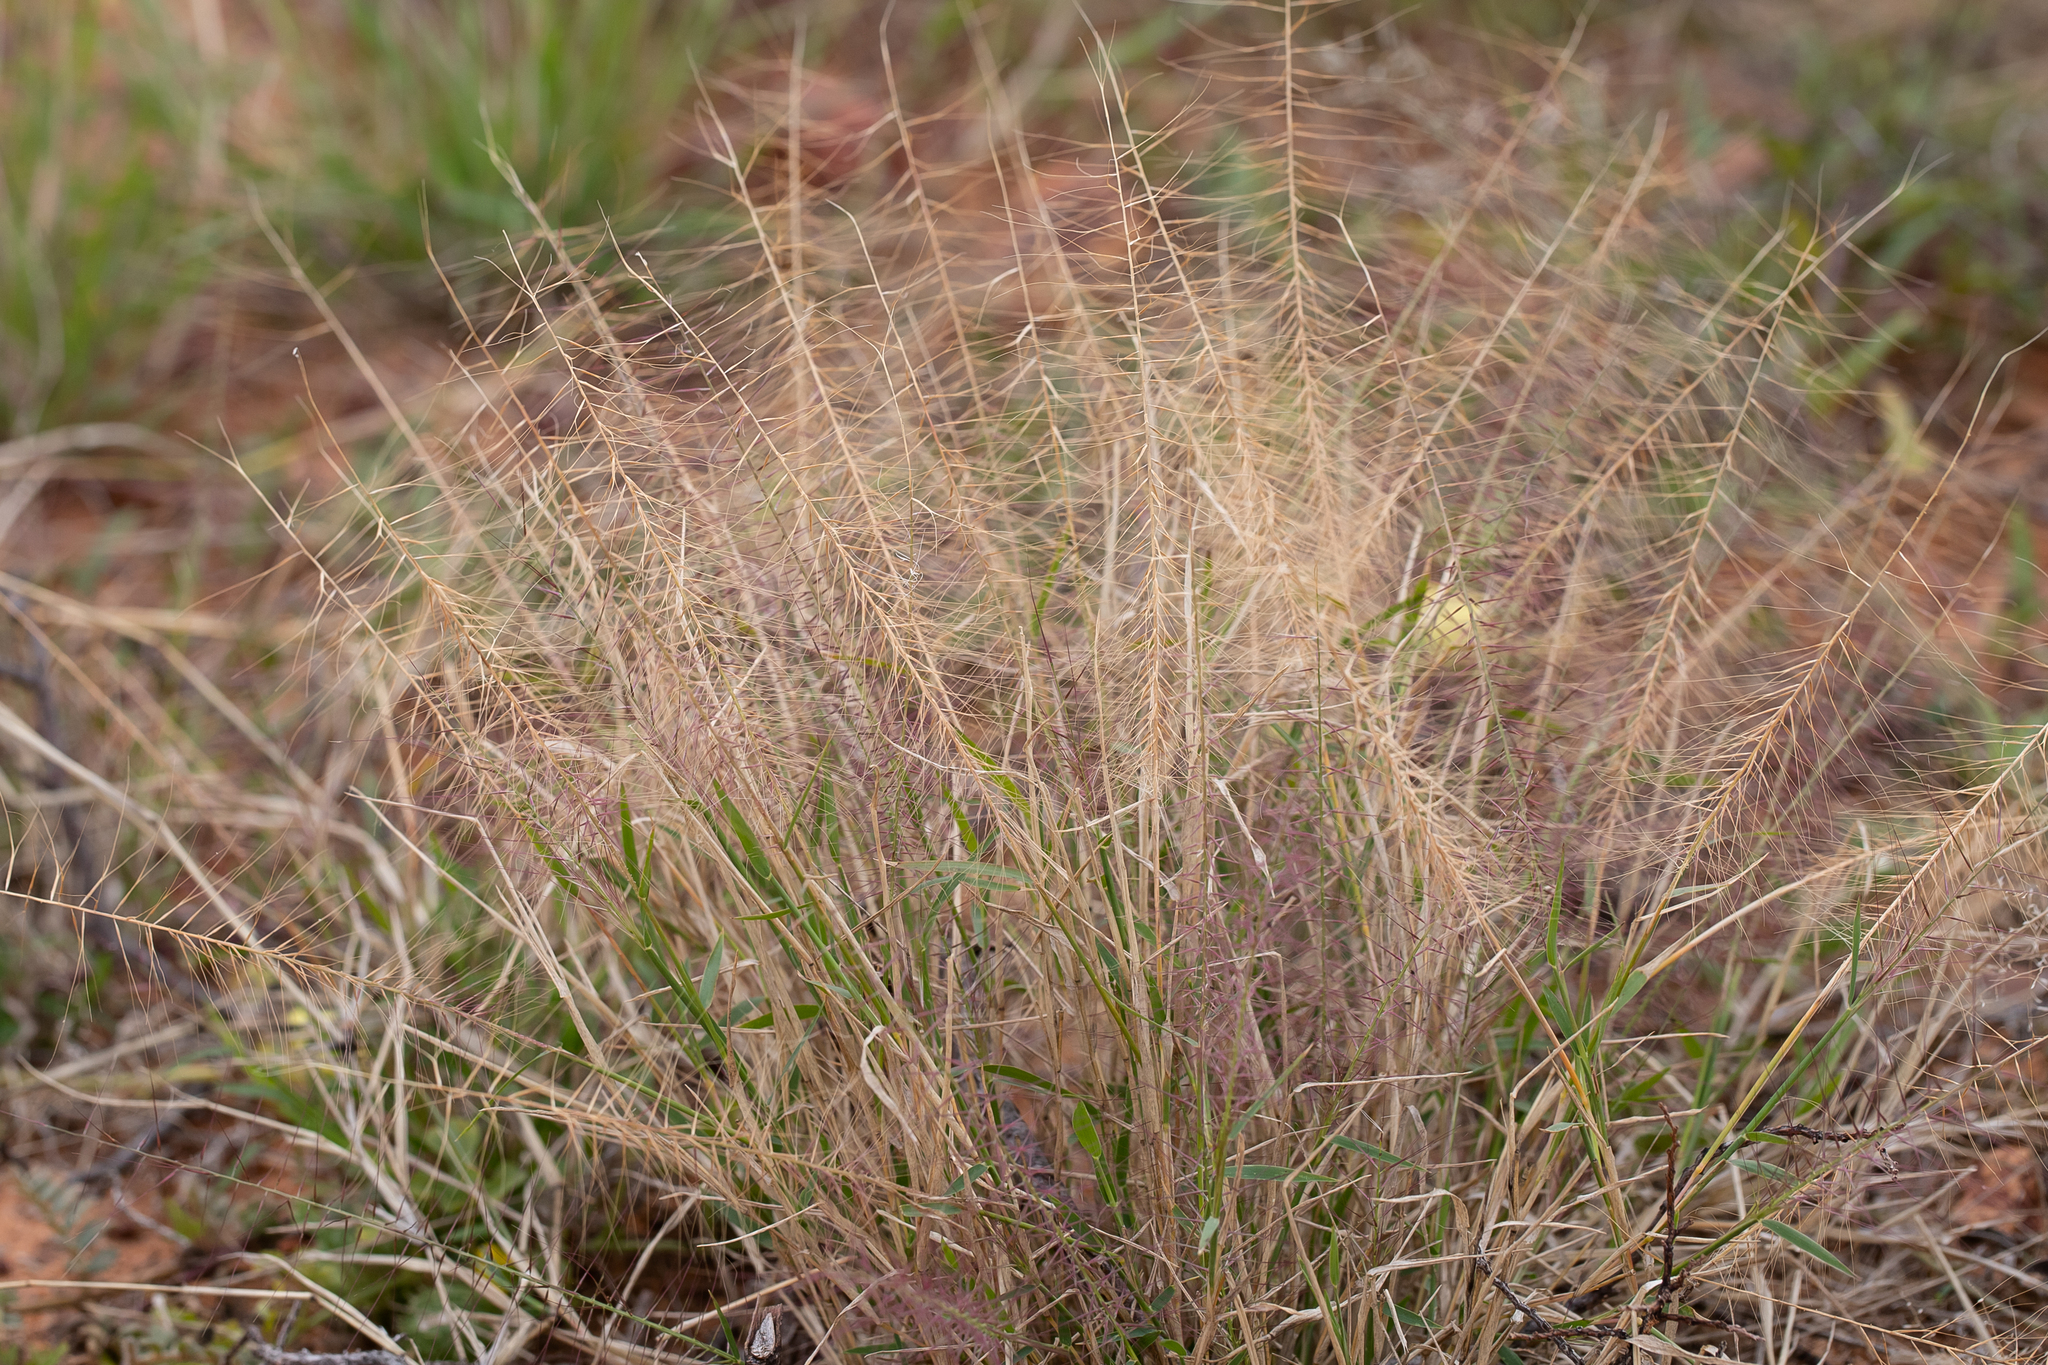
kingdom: Plantae
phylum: Tracheophyta
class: Liliopsida
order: Poales
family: Poaceae
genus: Perotis
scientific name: Perotis rara
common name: Comet grass
